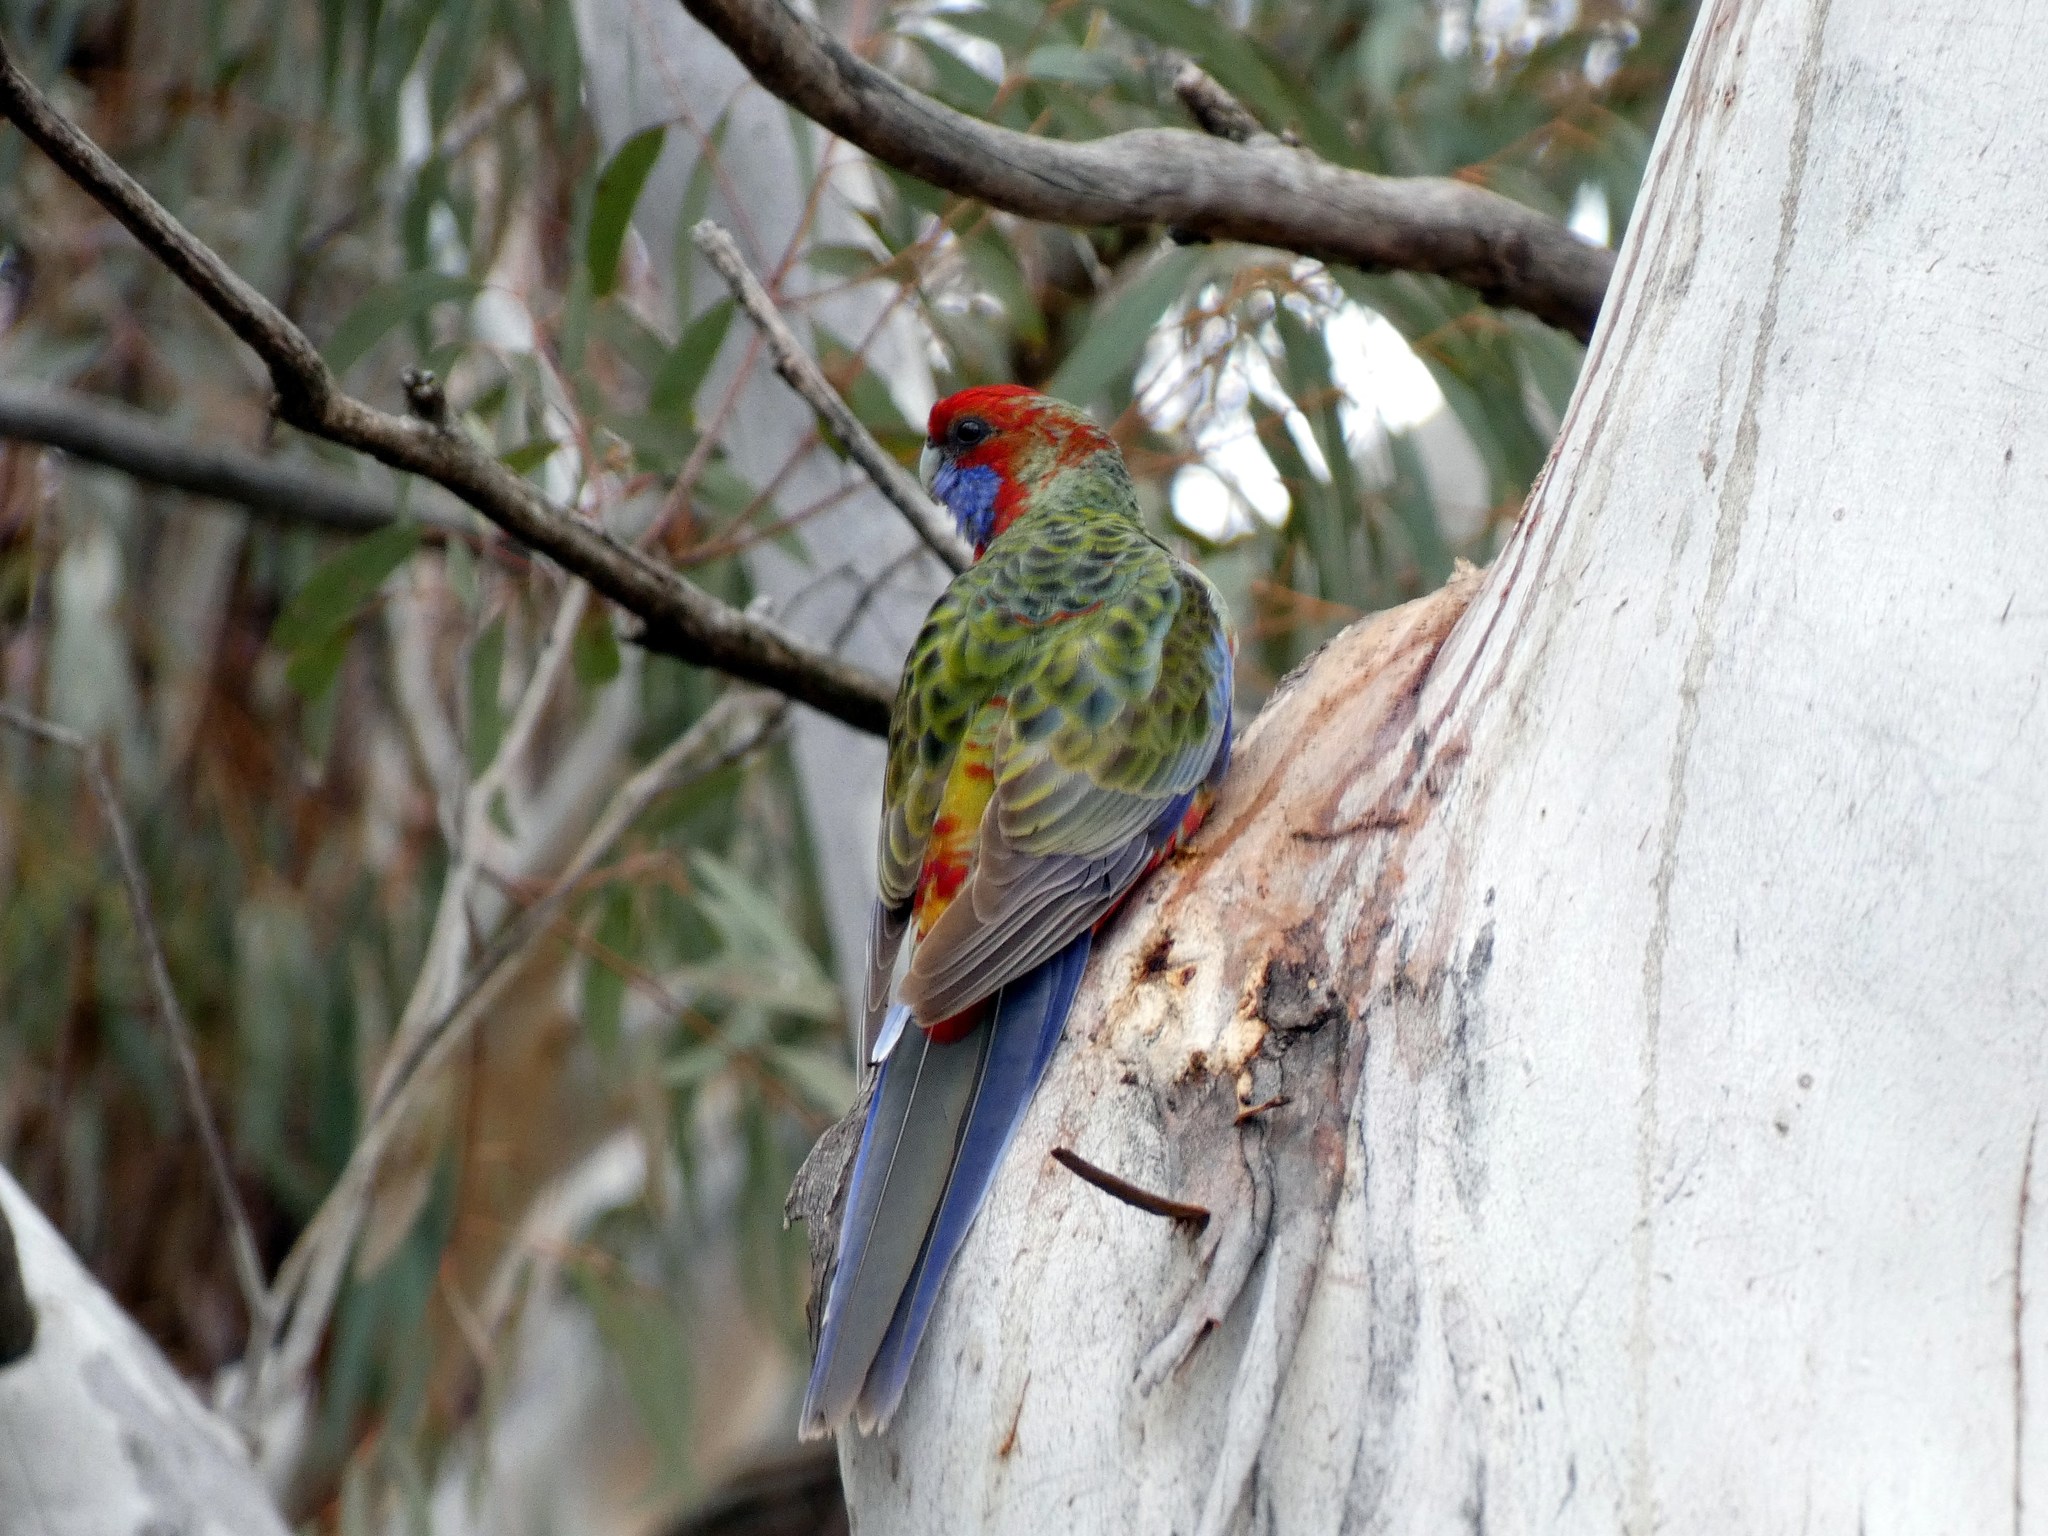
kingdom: Animalia
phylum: Chordata
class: Aves
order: Psittaciformes
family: Psittacidae
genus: Platycercus
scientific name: Platycercus elegans
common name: Crimson rosella
